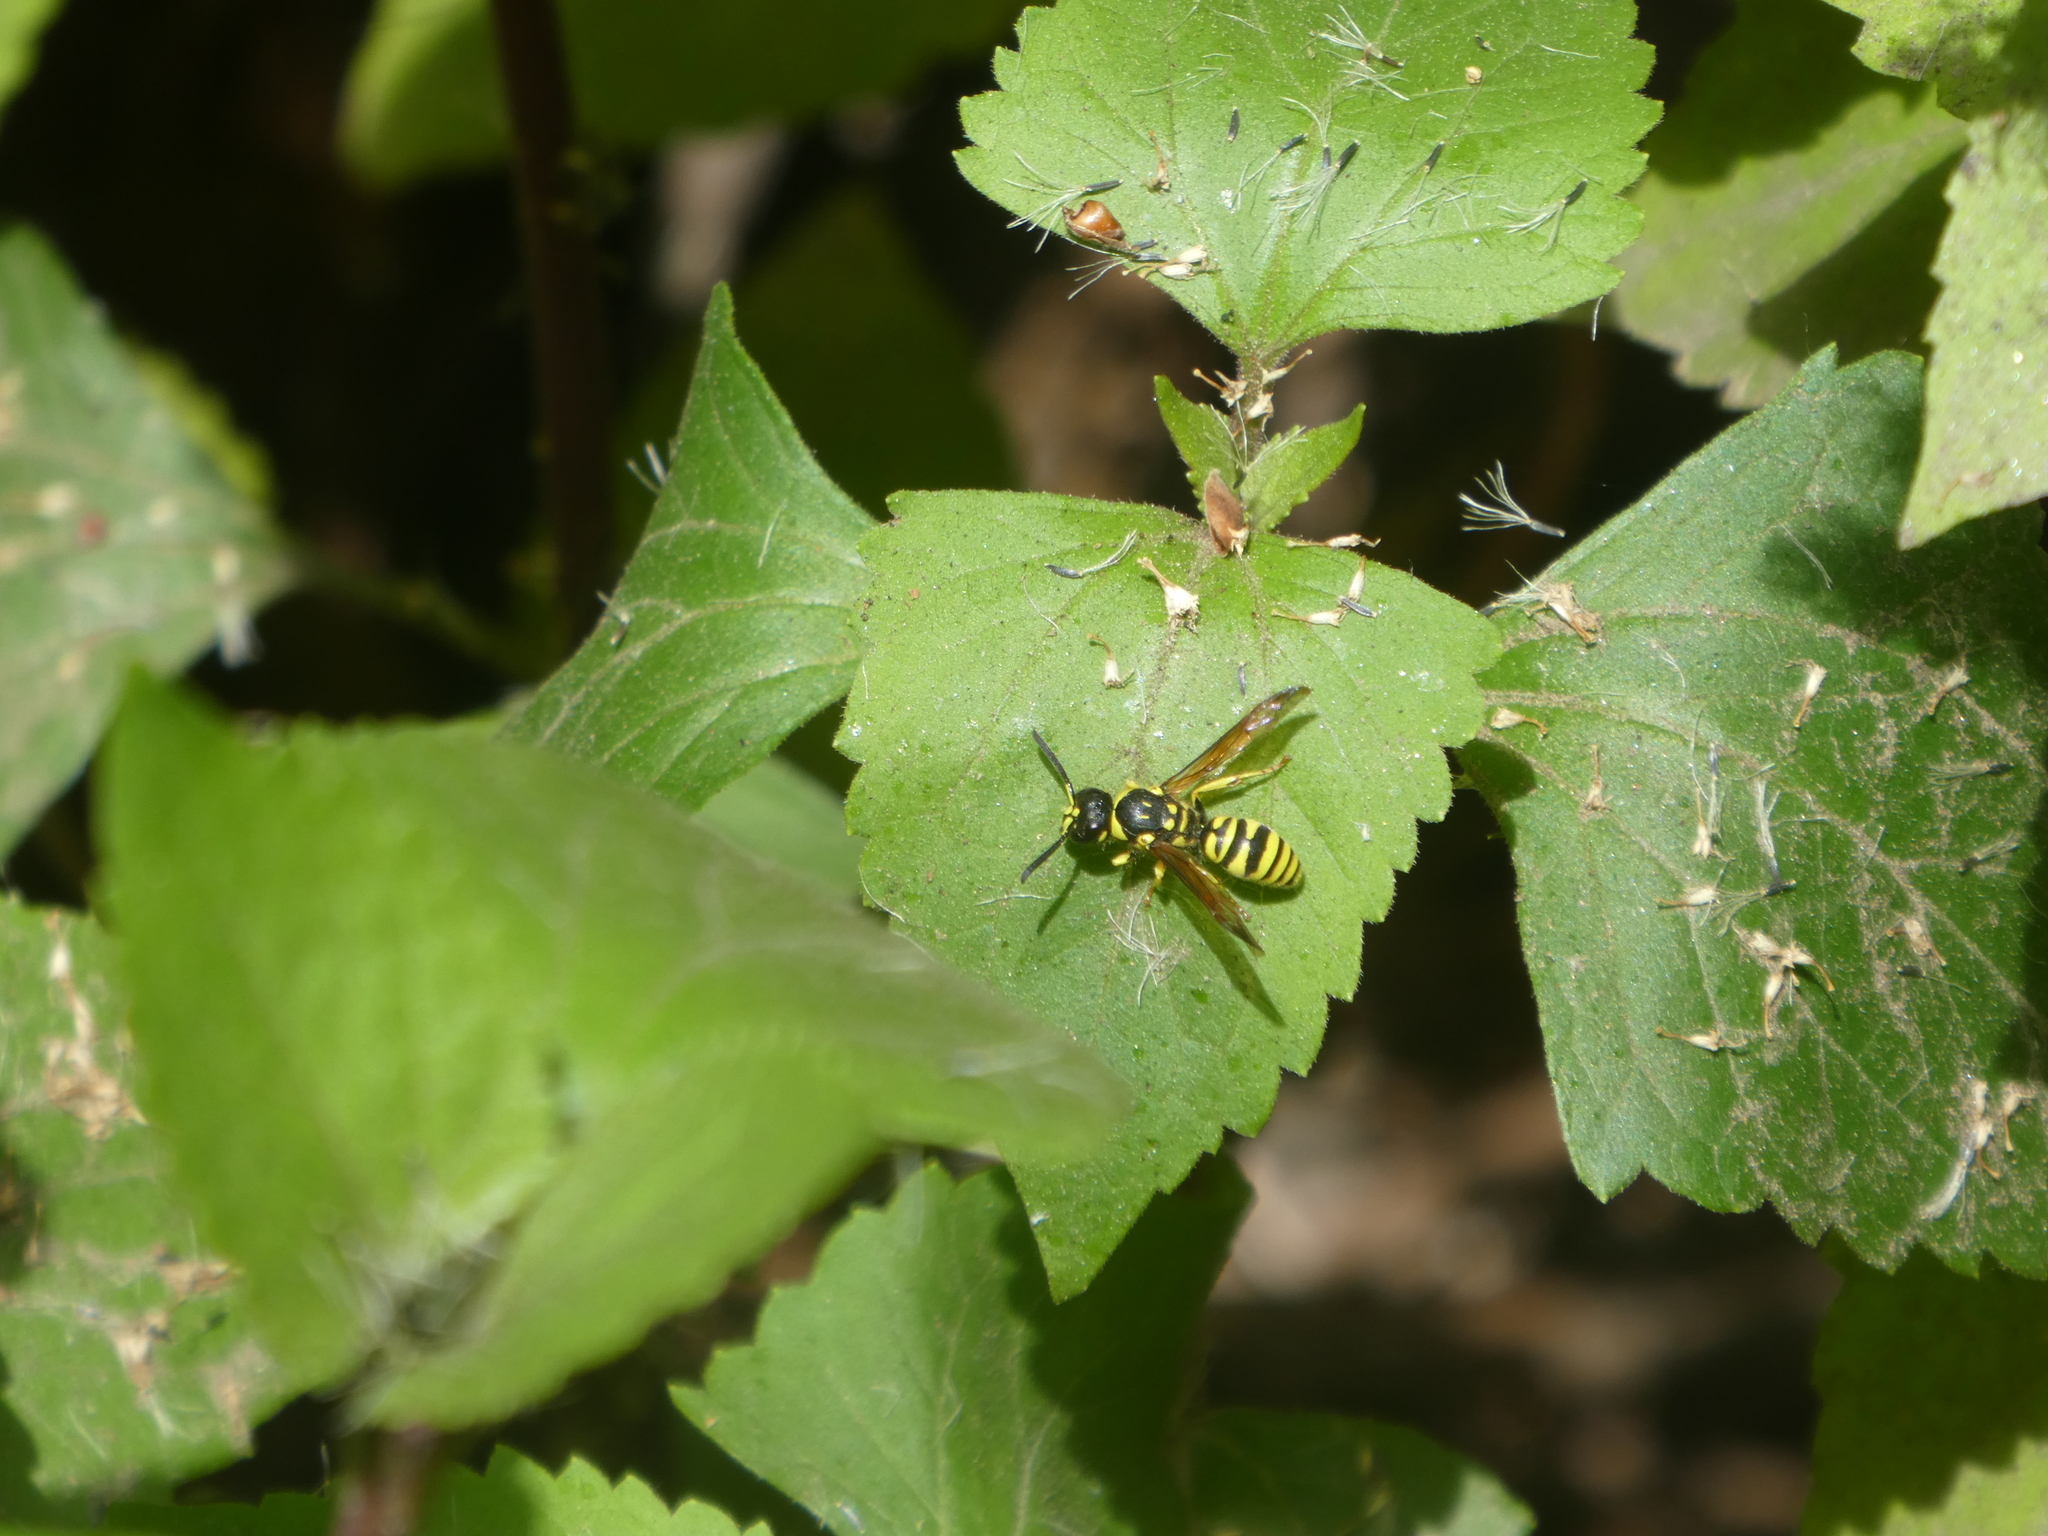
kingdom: Animalia
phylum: Arthropoda
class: Insecta
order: Hymenoptera
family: Vespidae
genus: Ancistrocerus
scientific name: Ancistrocerus adiabatus
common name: Bramble mason wasp
